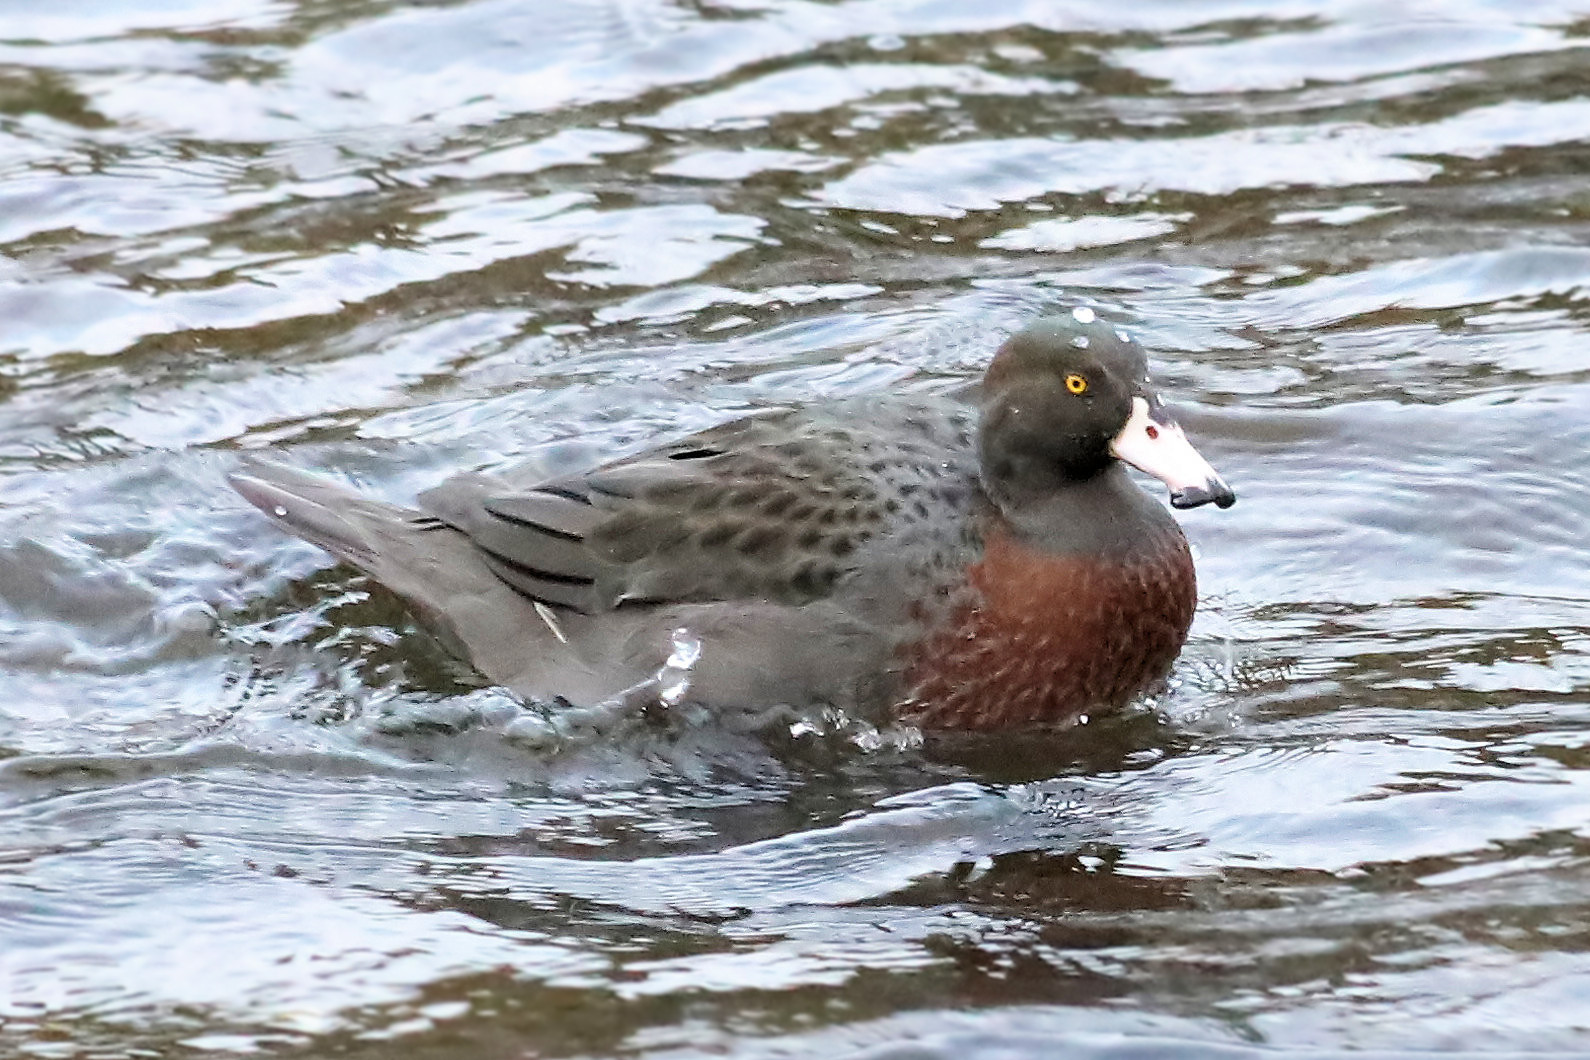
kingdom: Animalia
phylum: Chordata
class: Aves
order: Anseriformes
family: Anatidae
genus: Hymenolaimus
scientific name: Hymenolaimus malacorhynchos
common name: Blue duck
